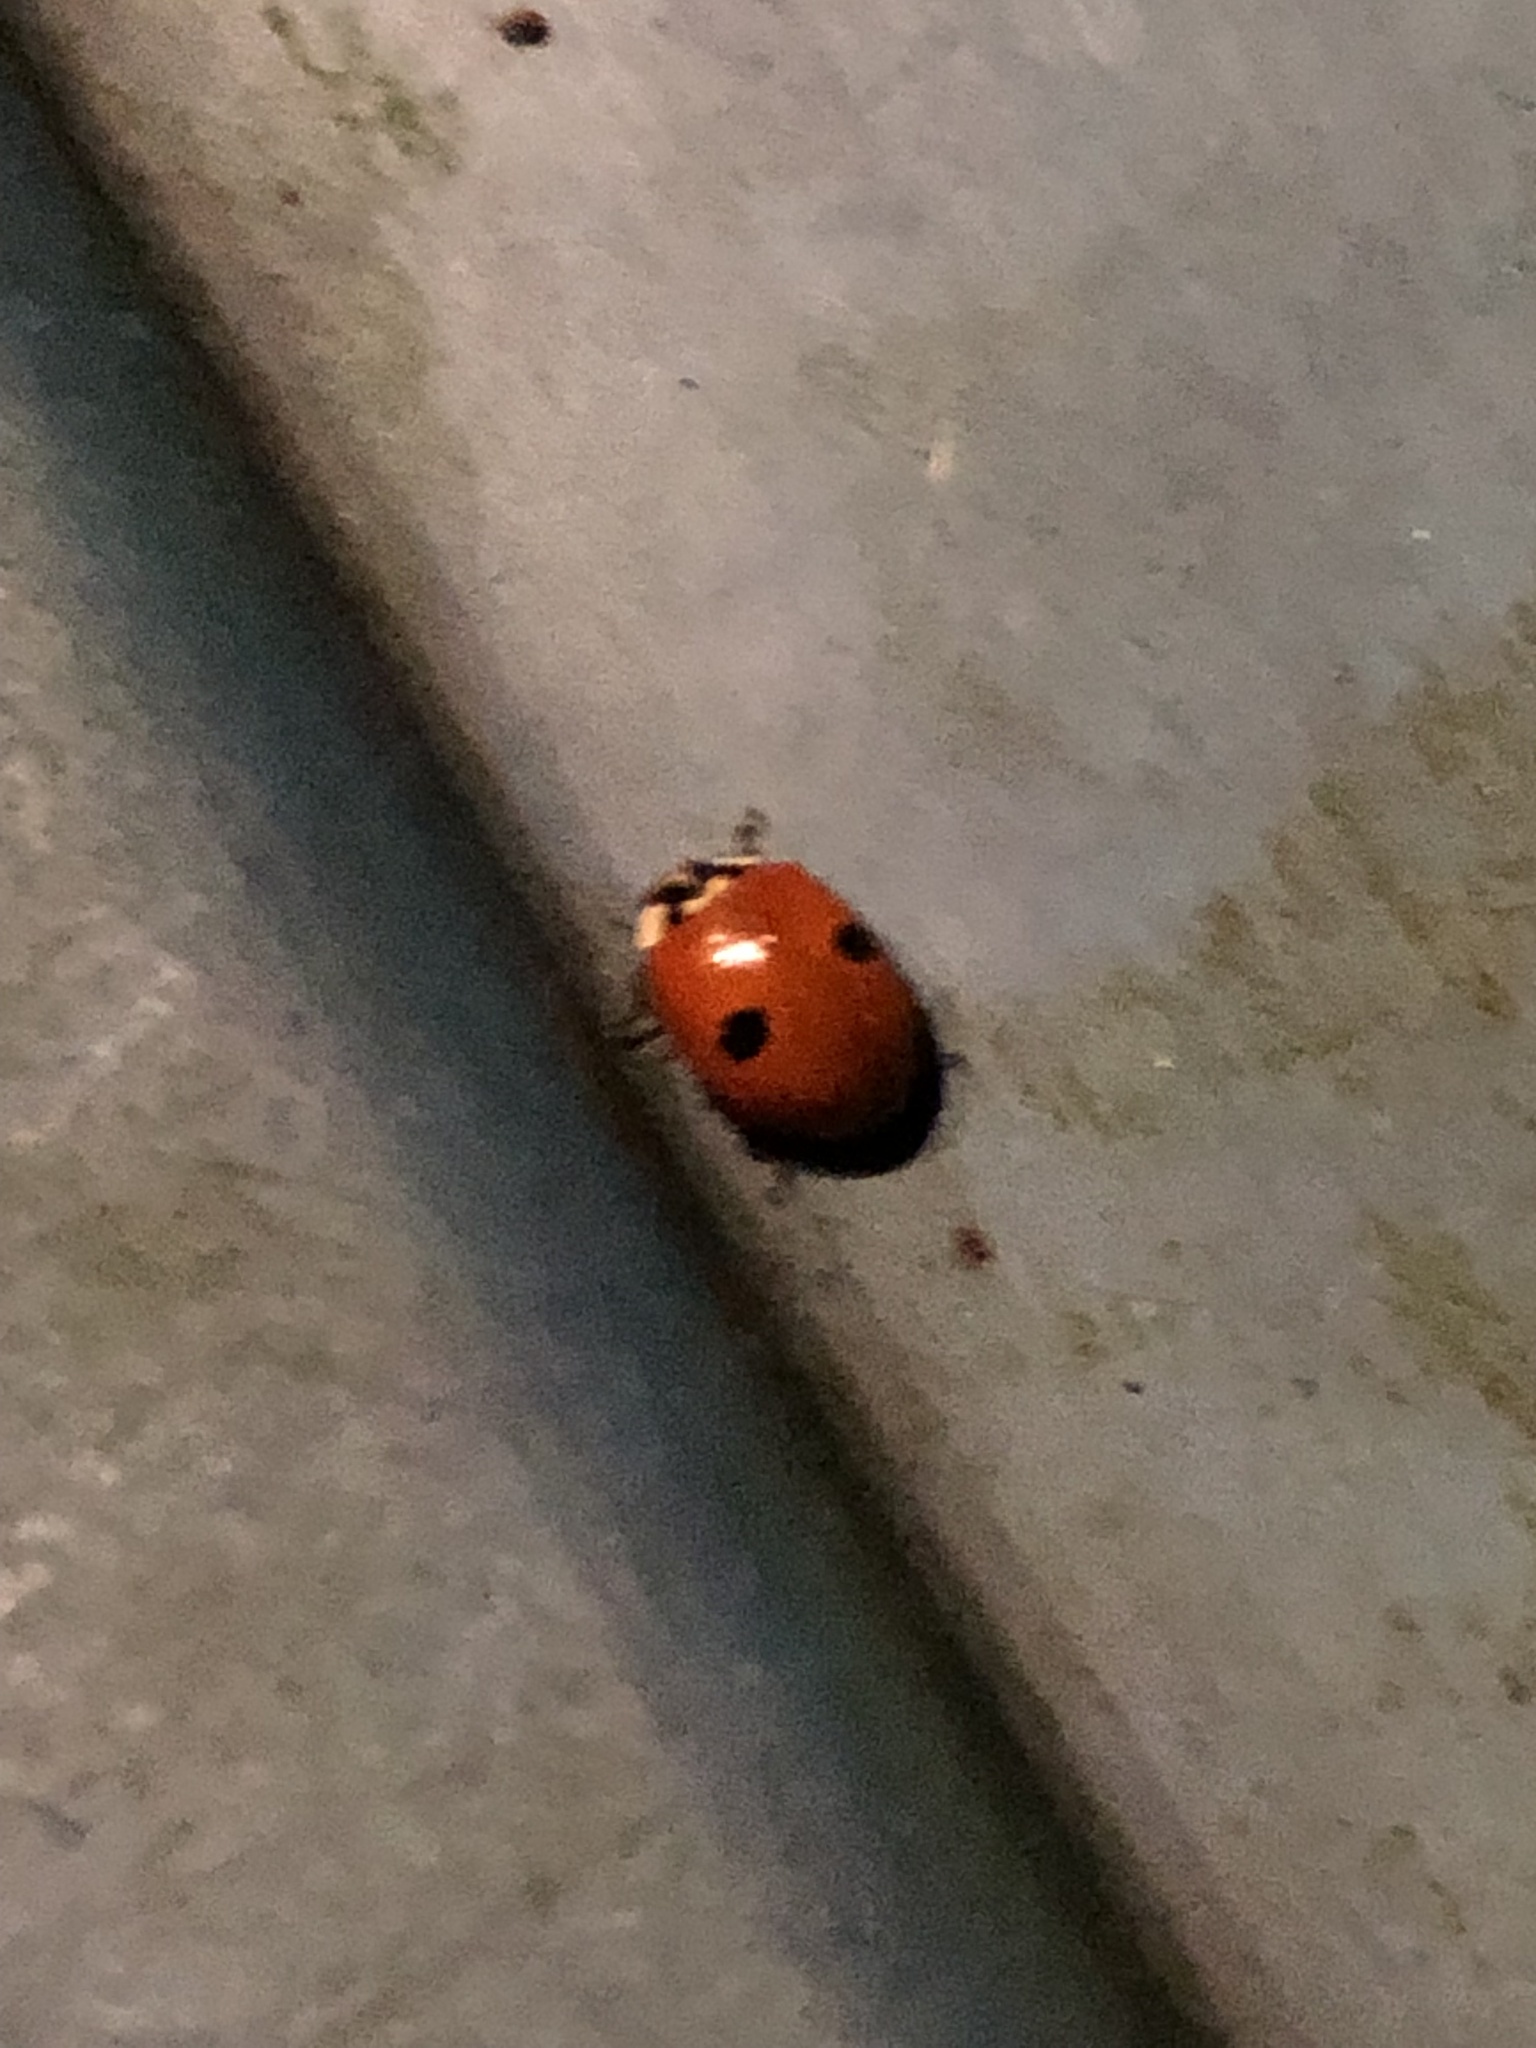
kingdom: Animalia
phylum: Arthropoda
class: Insecta
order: Coleoptera
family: Coccinellidae
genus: Adalia
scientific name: Adalia bipunctata
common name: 2-spot ladybird
